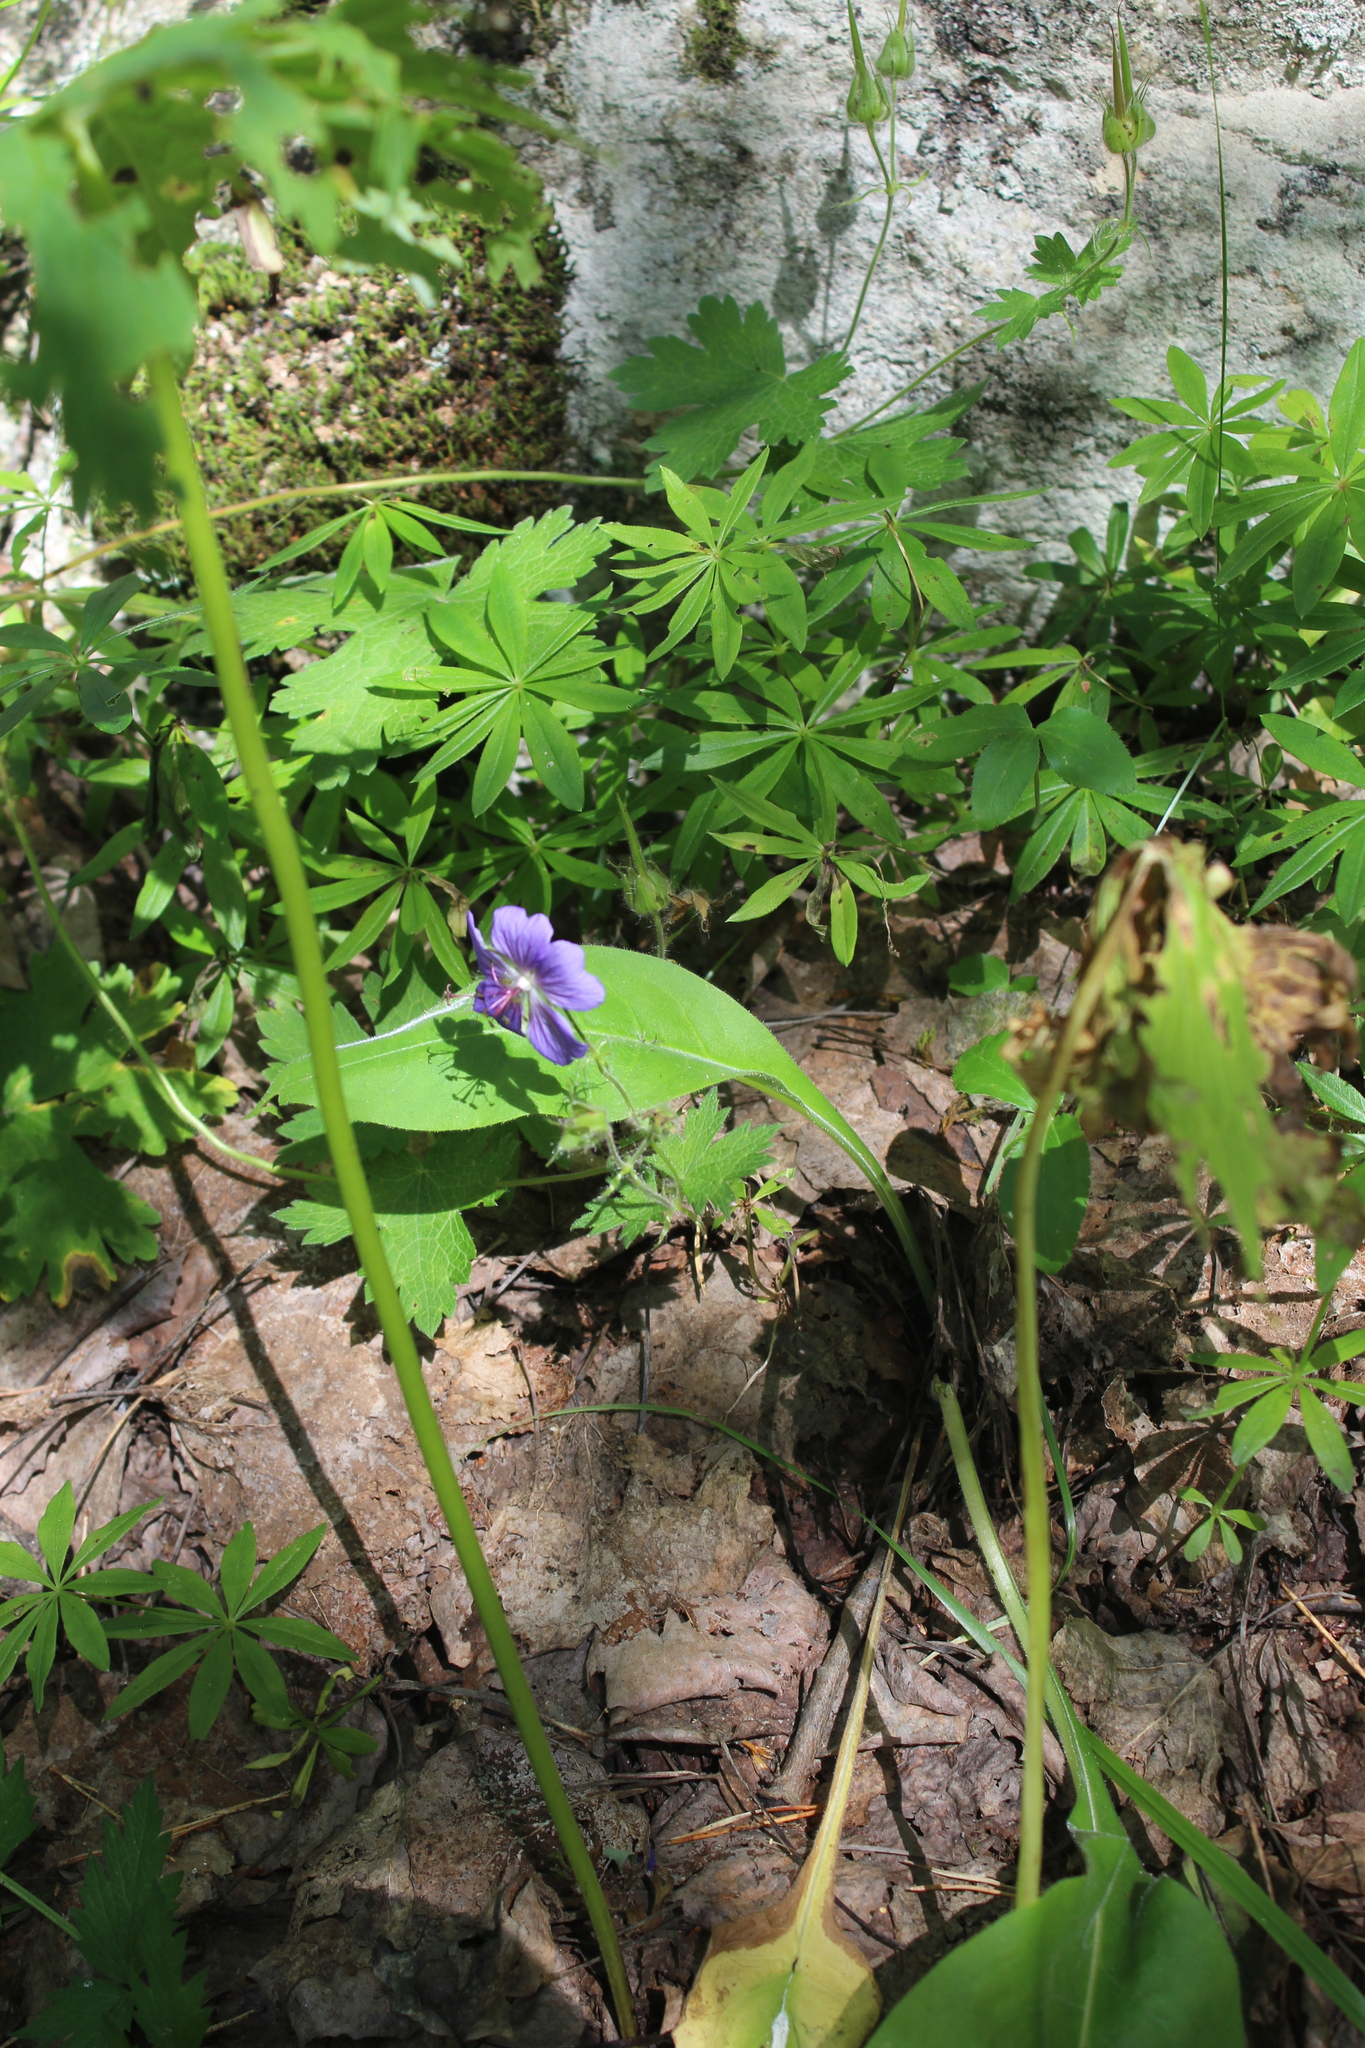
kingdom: Plantae
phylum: Tracheophyta
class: Magnoliopsida
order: Geraniales
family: Geraniaceae
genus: Geranium
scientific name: Geranium platypetalum
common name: Glandular crane's-bill
